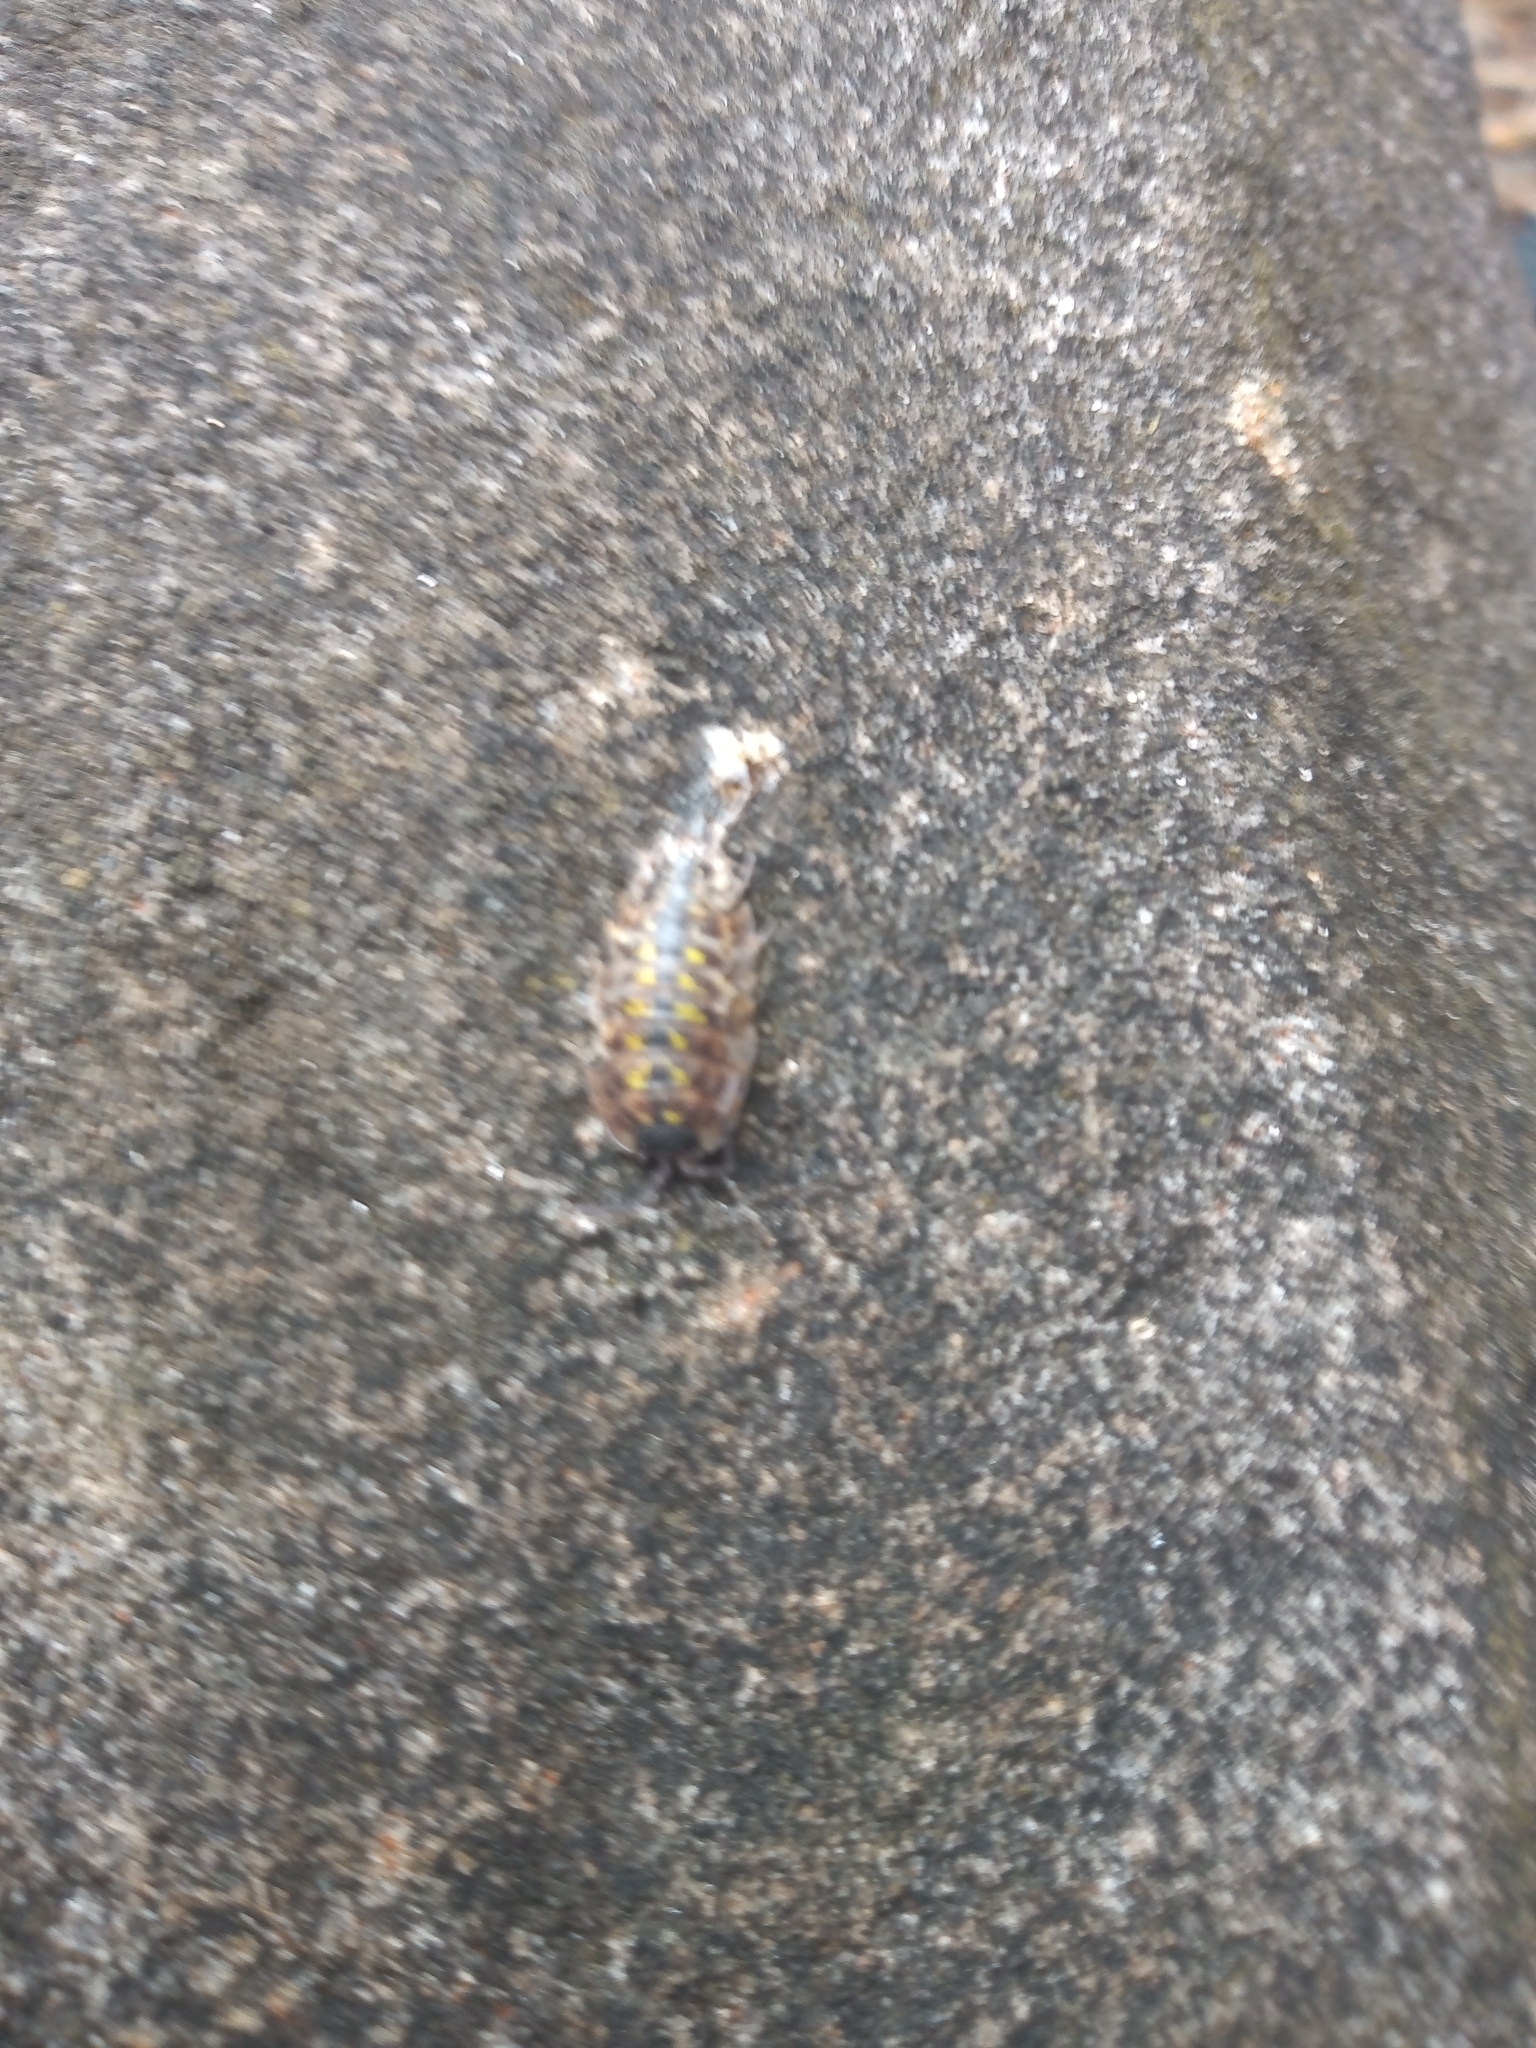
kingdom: Animalia
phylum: Arthropoda
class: Malacostraca
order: Isopoda
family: Porcellionidae
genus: Porcellio
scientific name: Porcellio spinicornis
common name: Painted woodlouse
